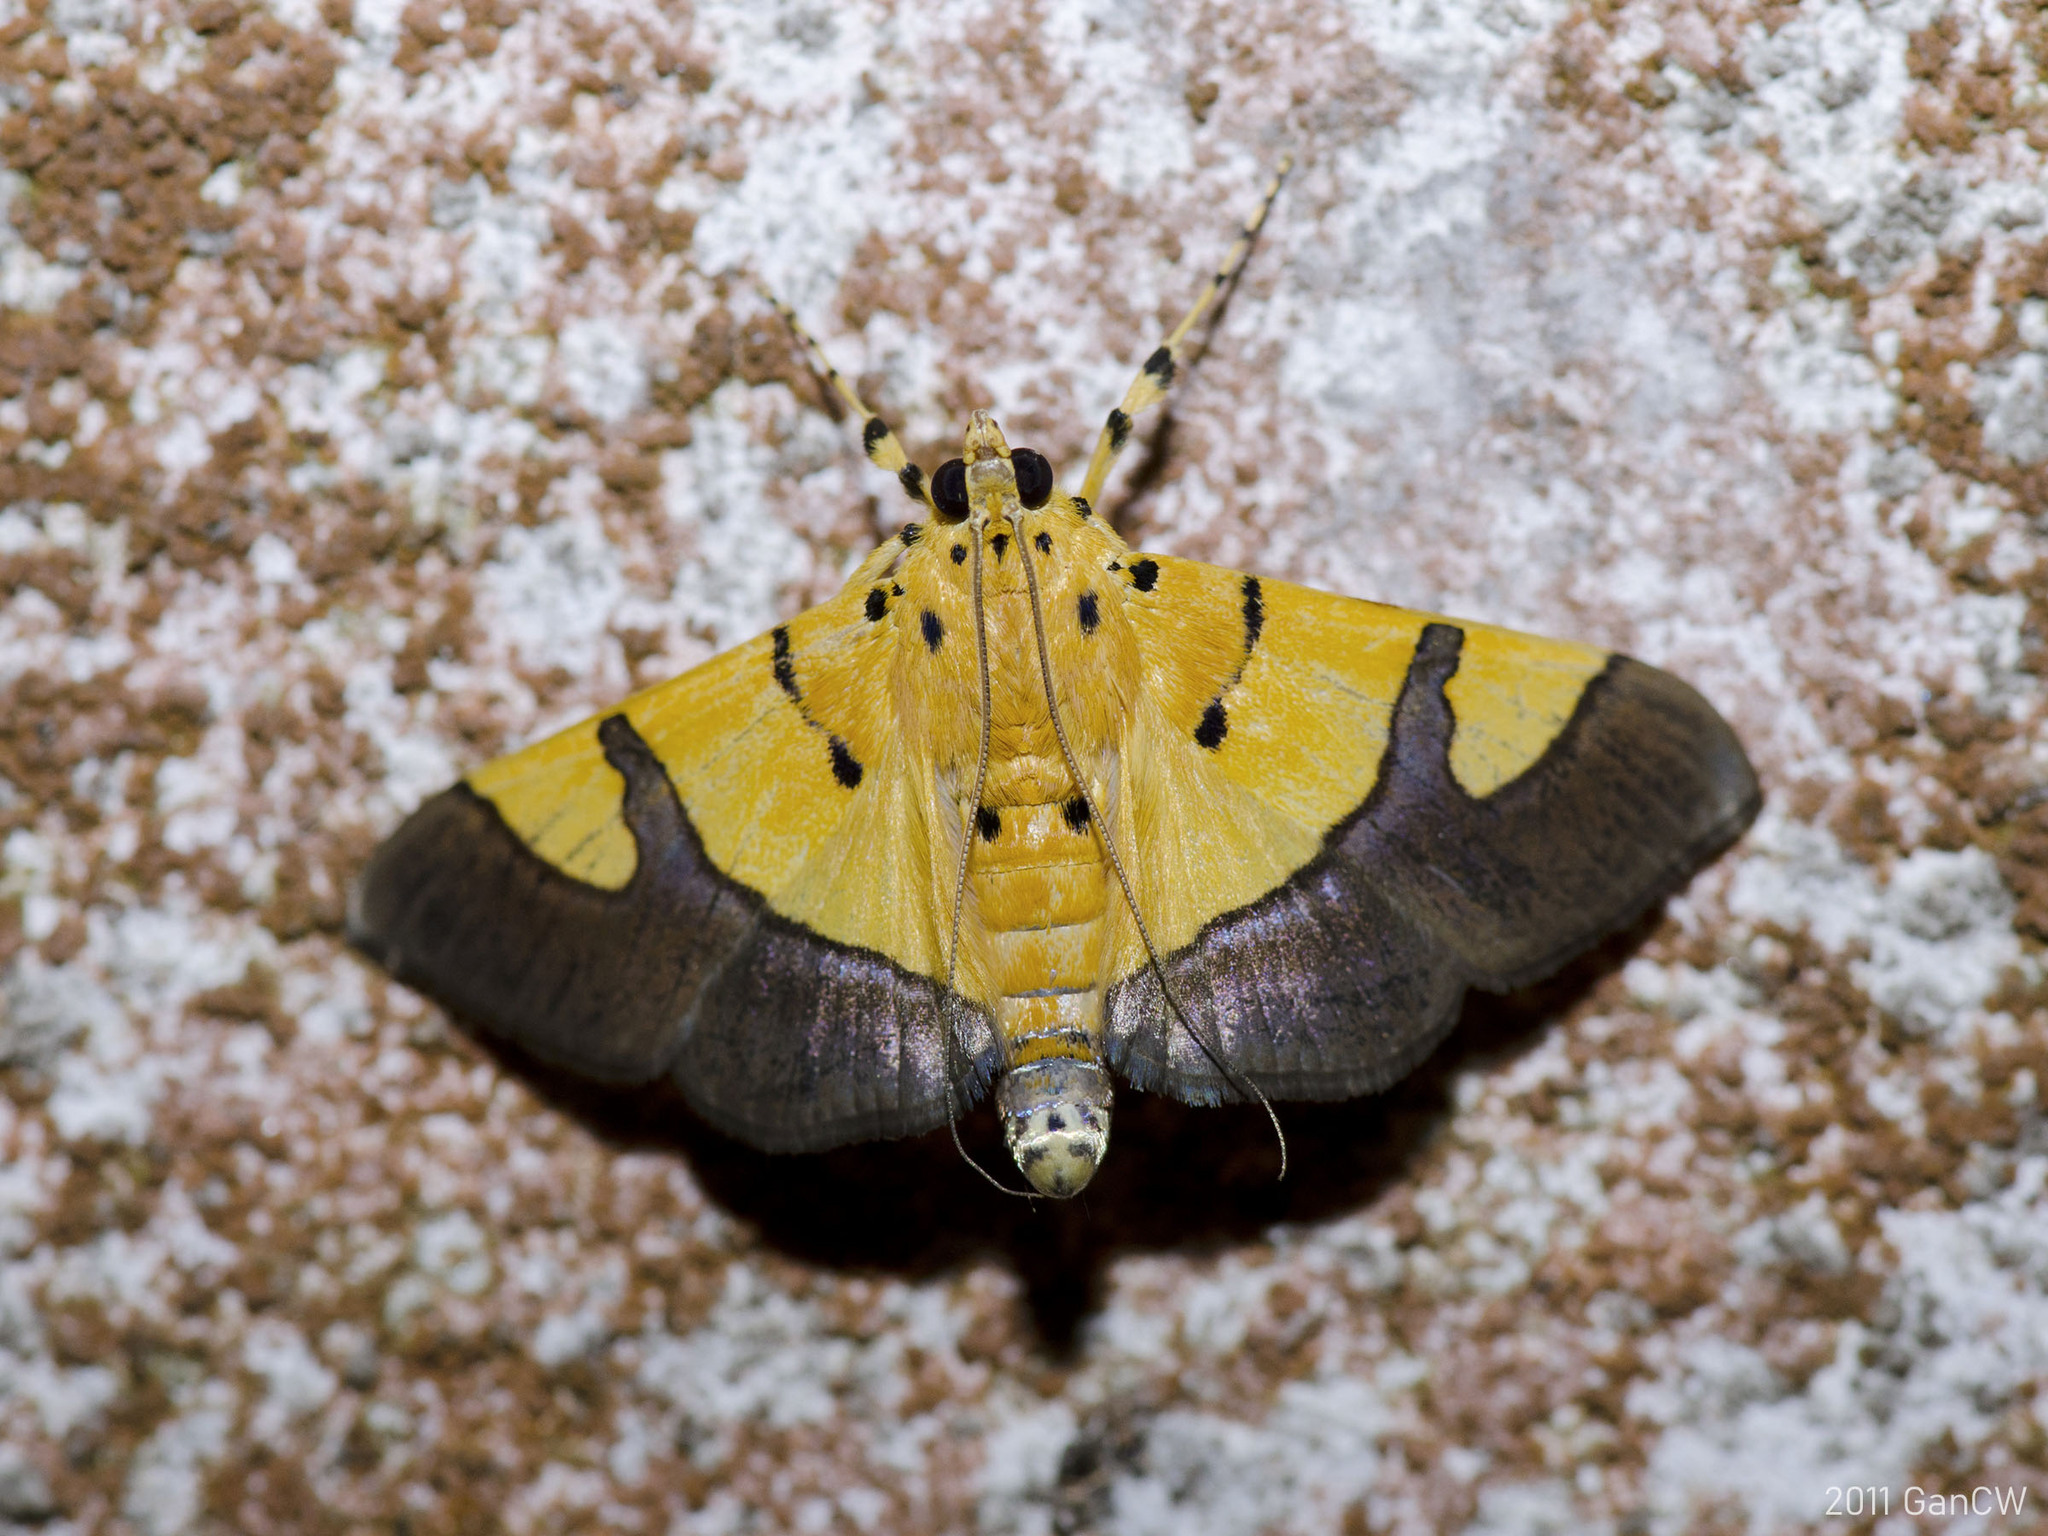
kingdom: Animalia
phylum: Arthropoda
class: Insecta
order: Lepidoptera
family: Crambidae
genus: Botyodes
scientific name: Botyodes
